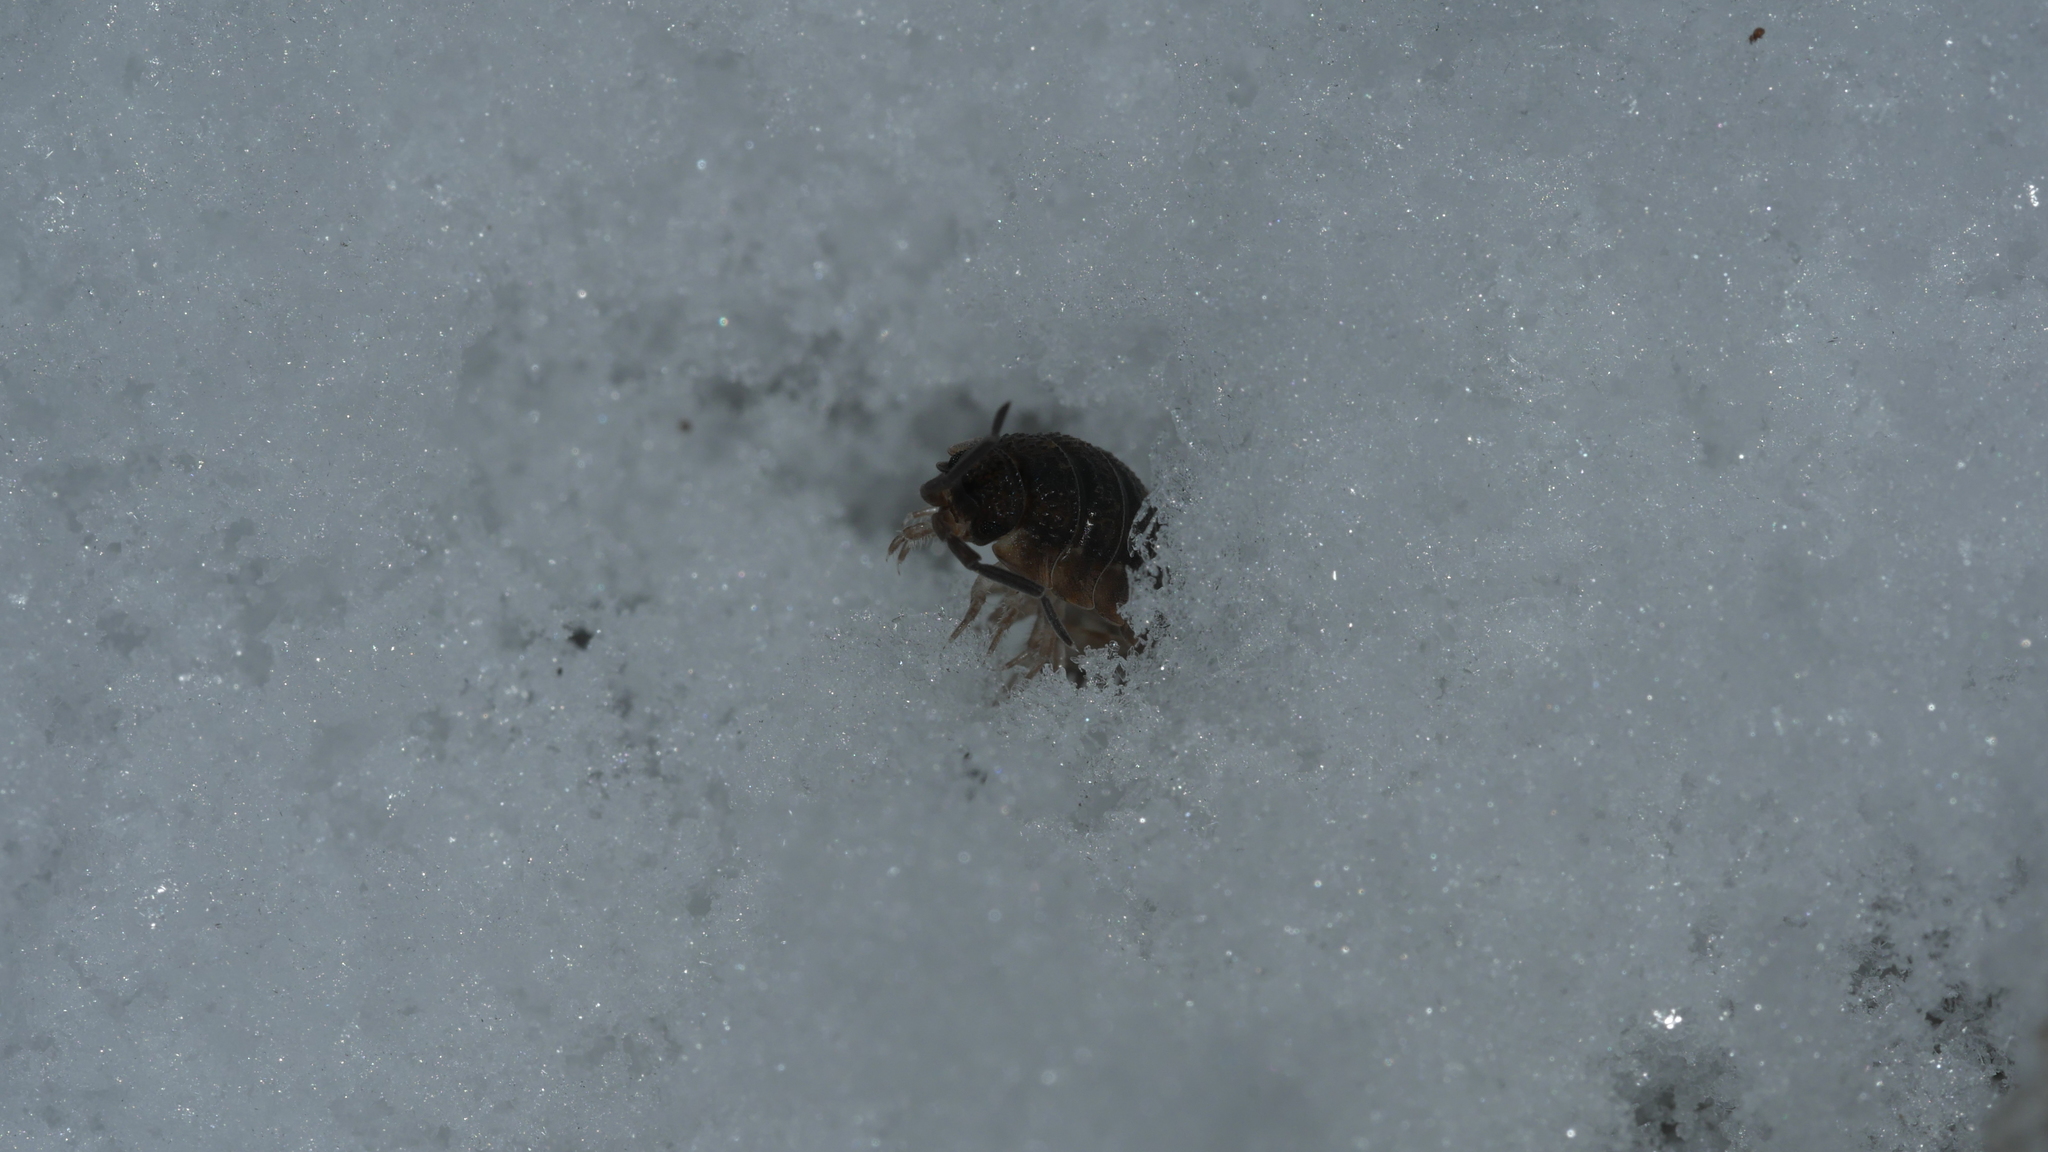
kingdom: Animalia
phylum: Arthropoda
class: Malacostraca
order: Isopoda
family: Porcellionidae
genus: Porcellio
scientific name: Porcellio scaber
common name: Common rough woodlouse
